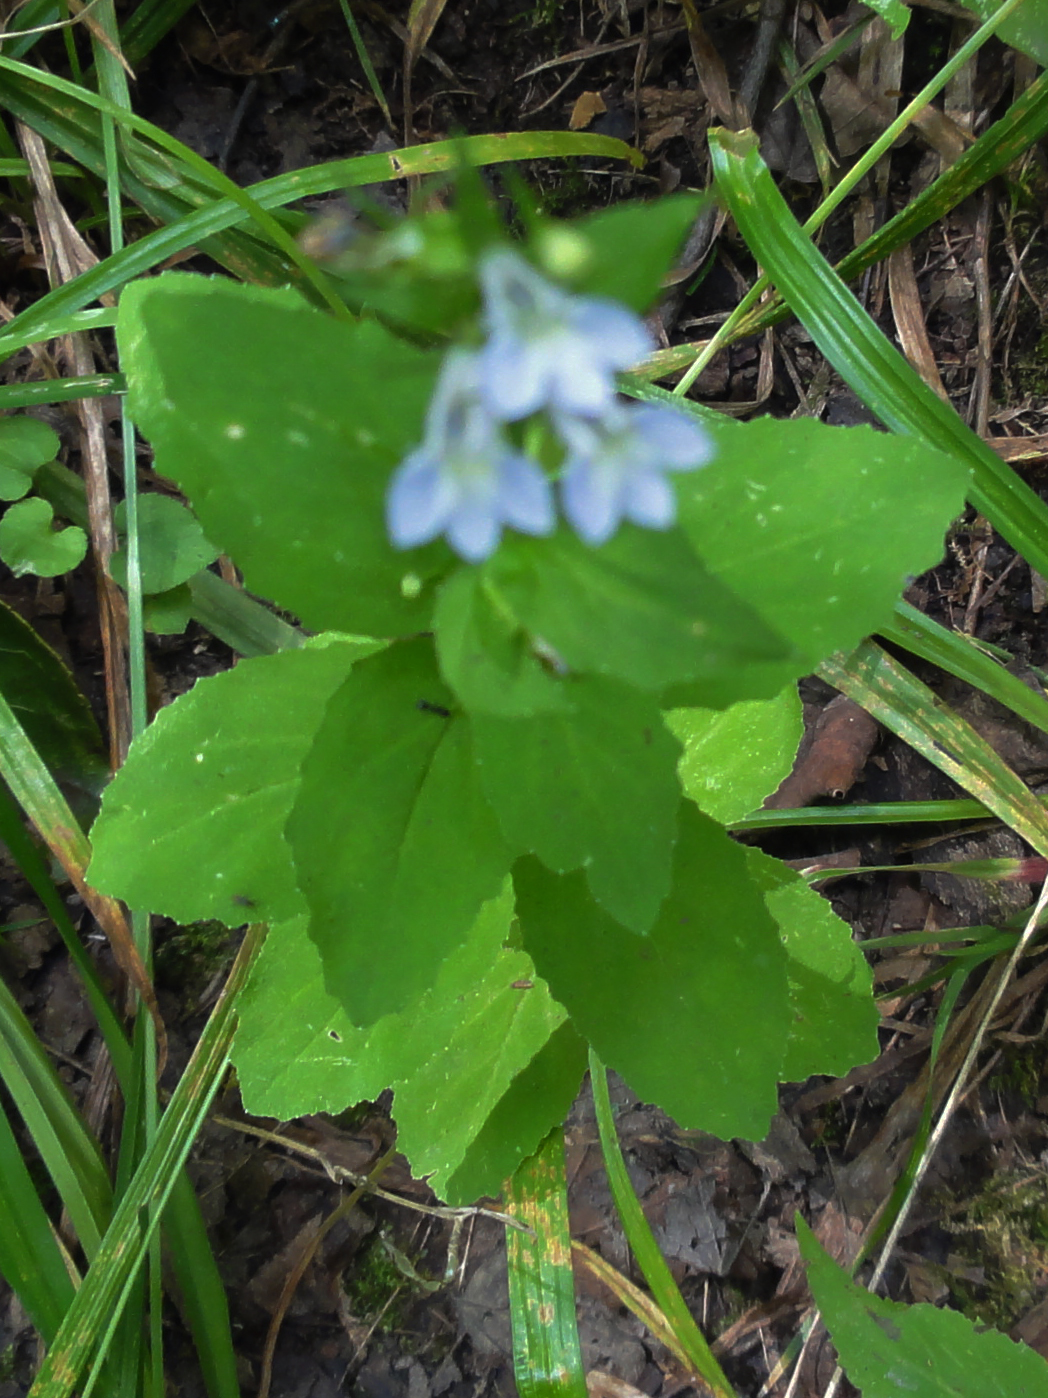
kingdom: Plantae
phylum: Tracheophyta
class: Magnoliopsida
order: Asterales
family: Campanulaceae
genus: Lobelia
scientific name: Lobelia inflata
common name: Indian tobacco
